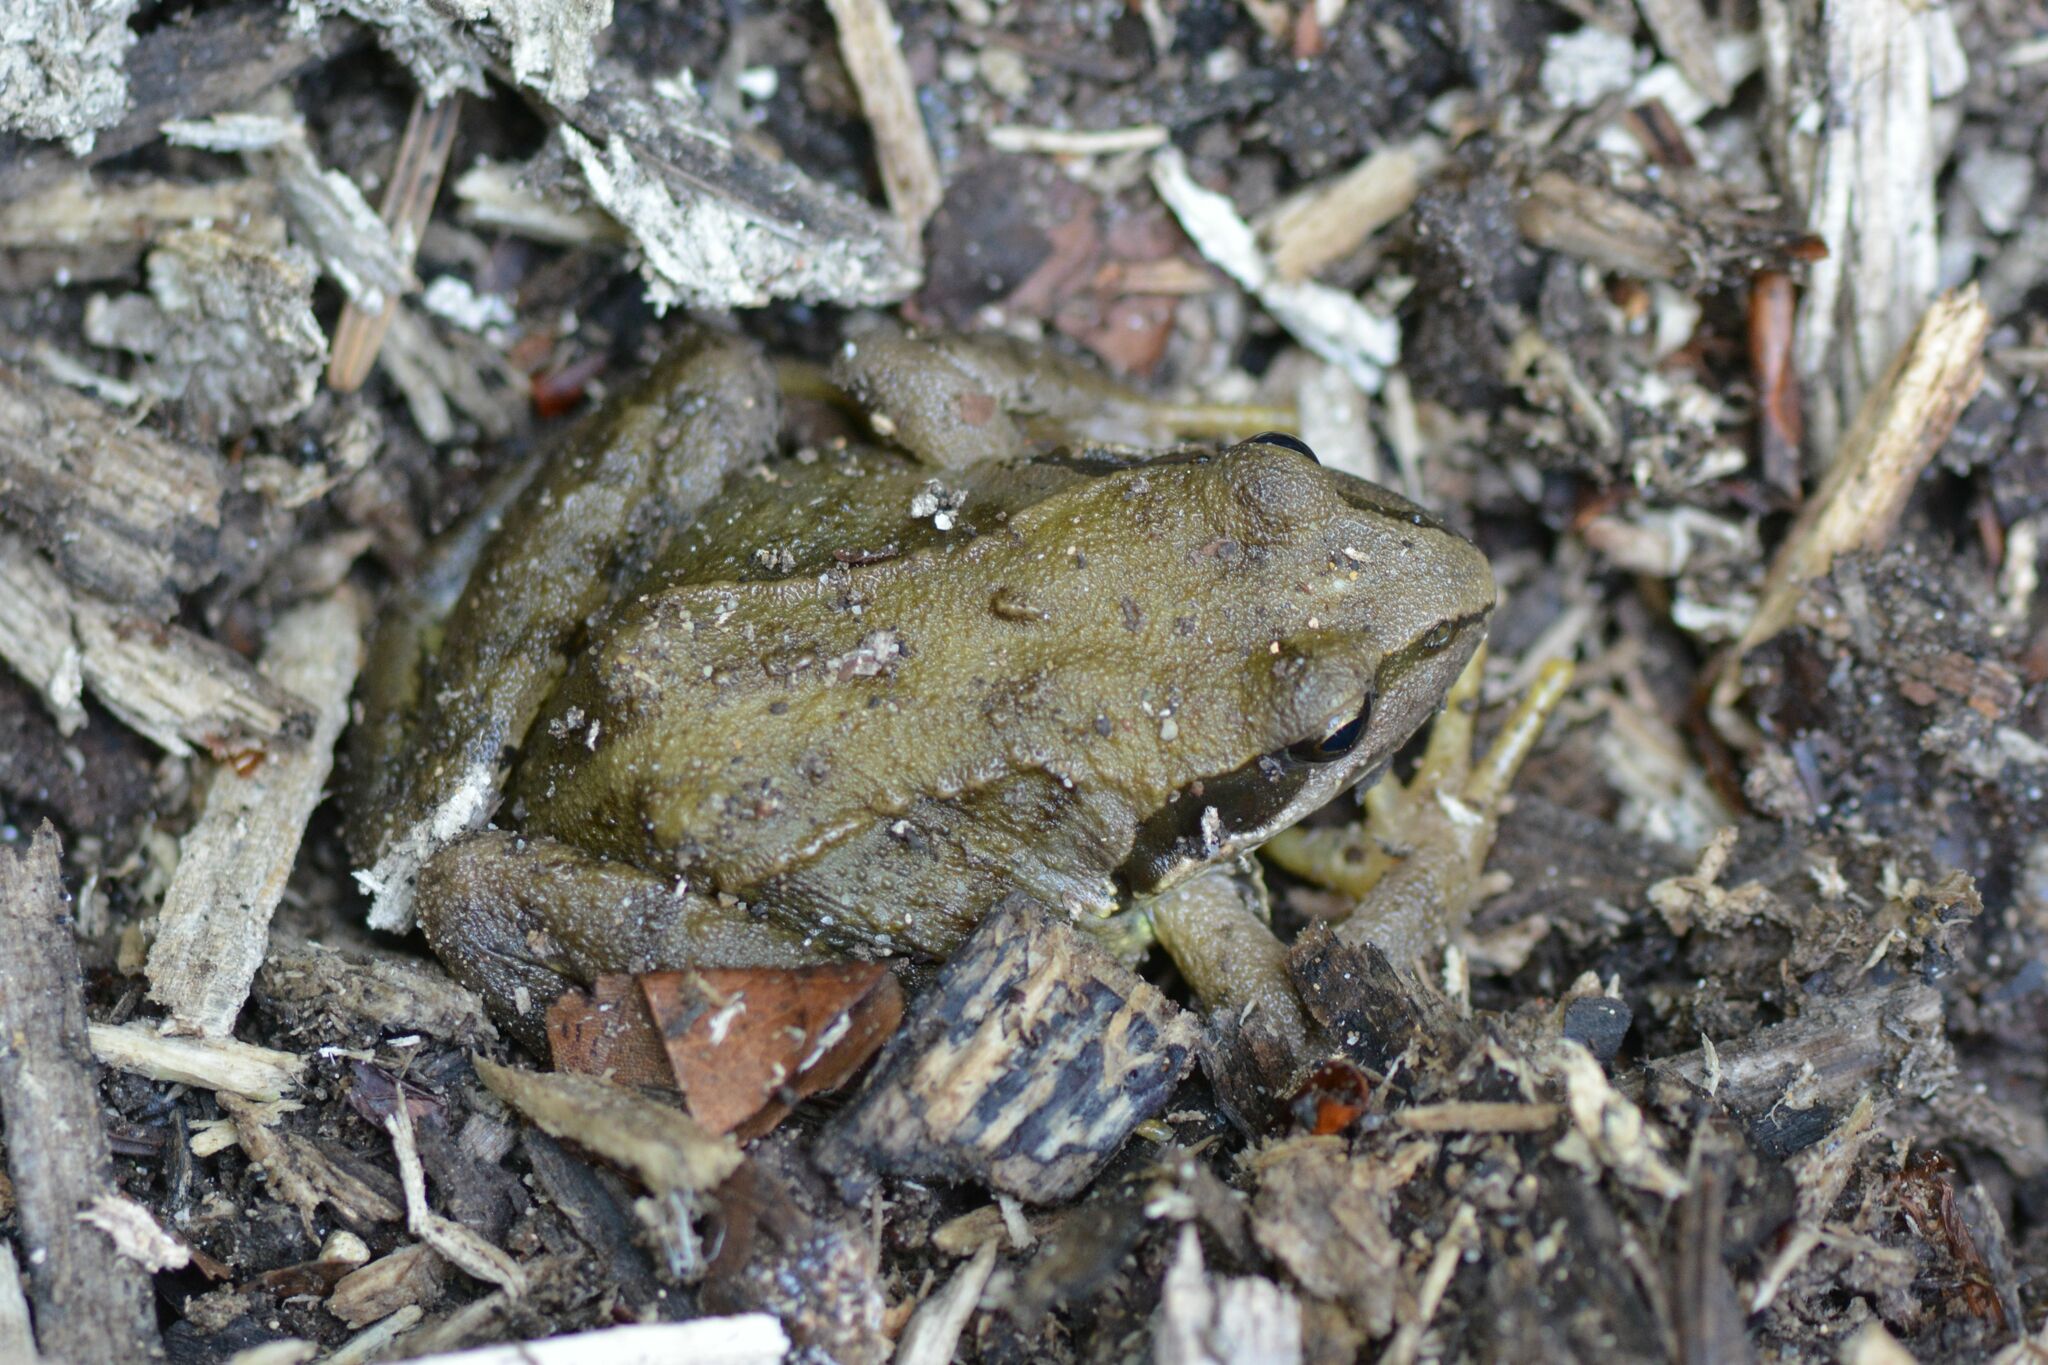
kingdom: Animalia
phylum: Chordata
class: Amphibia
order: Anura
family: Ranidae
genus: Rana
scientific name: Rana temporaria
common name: Common frog
